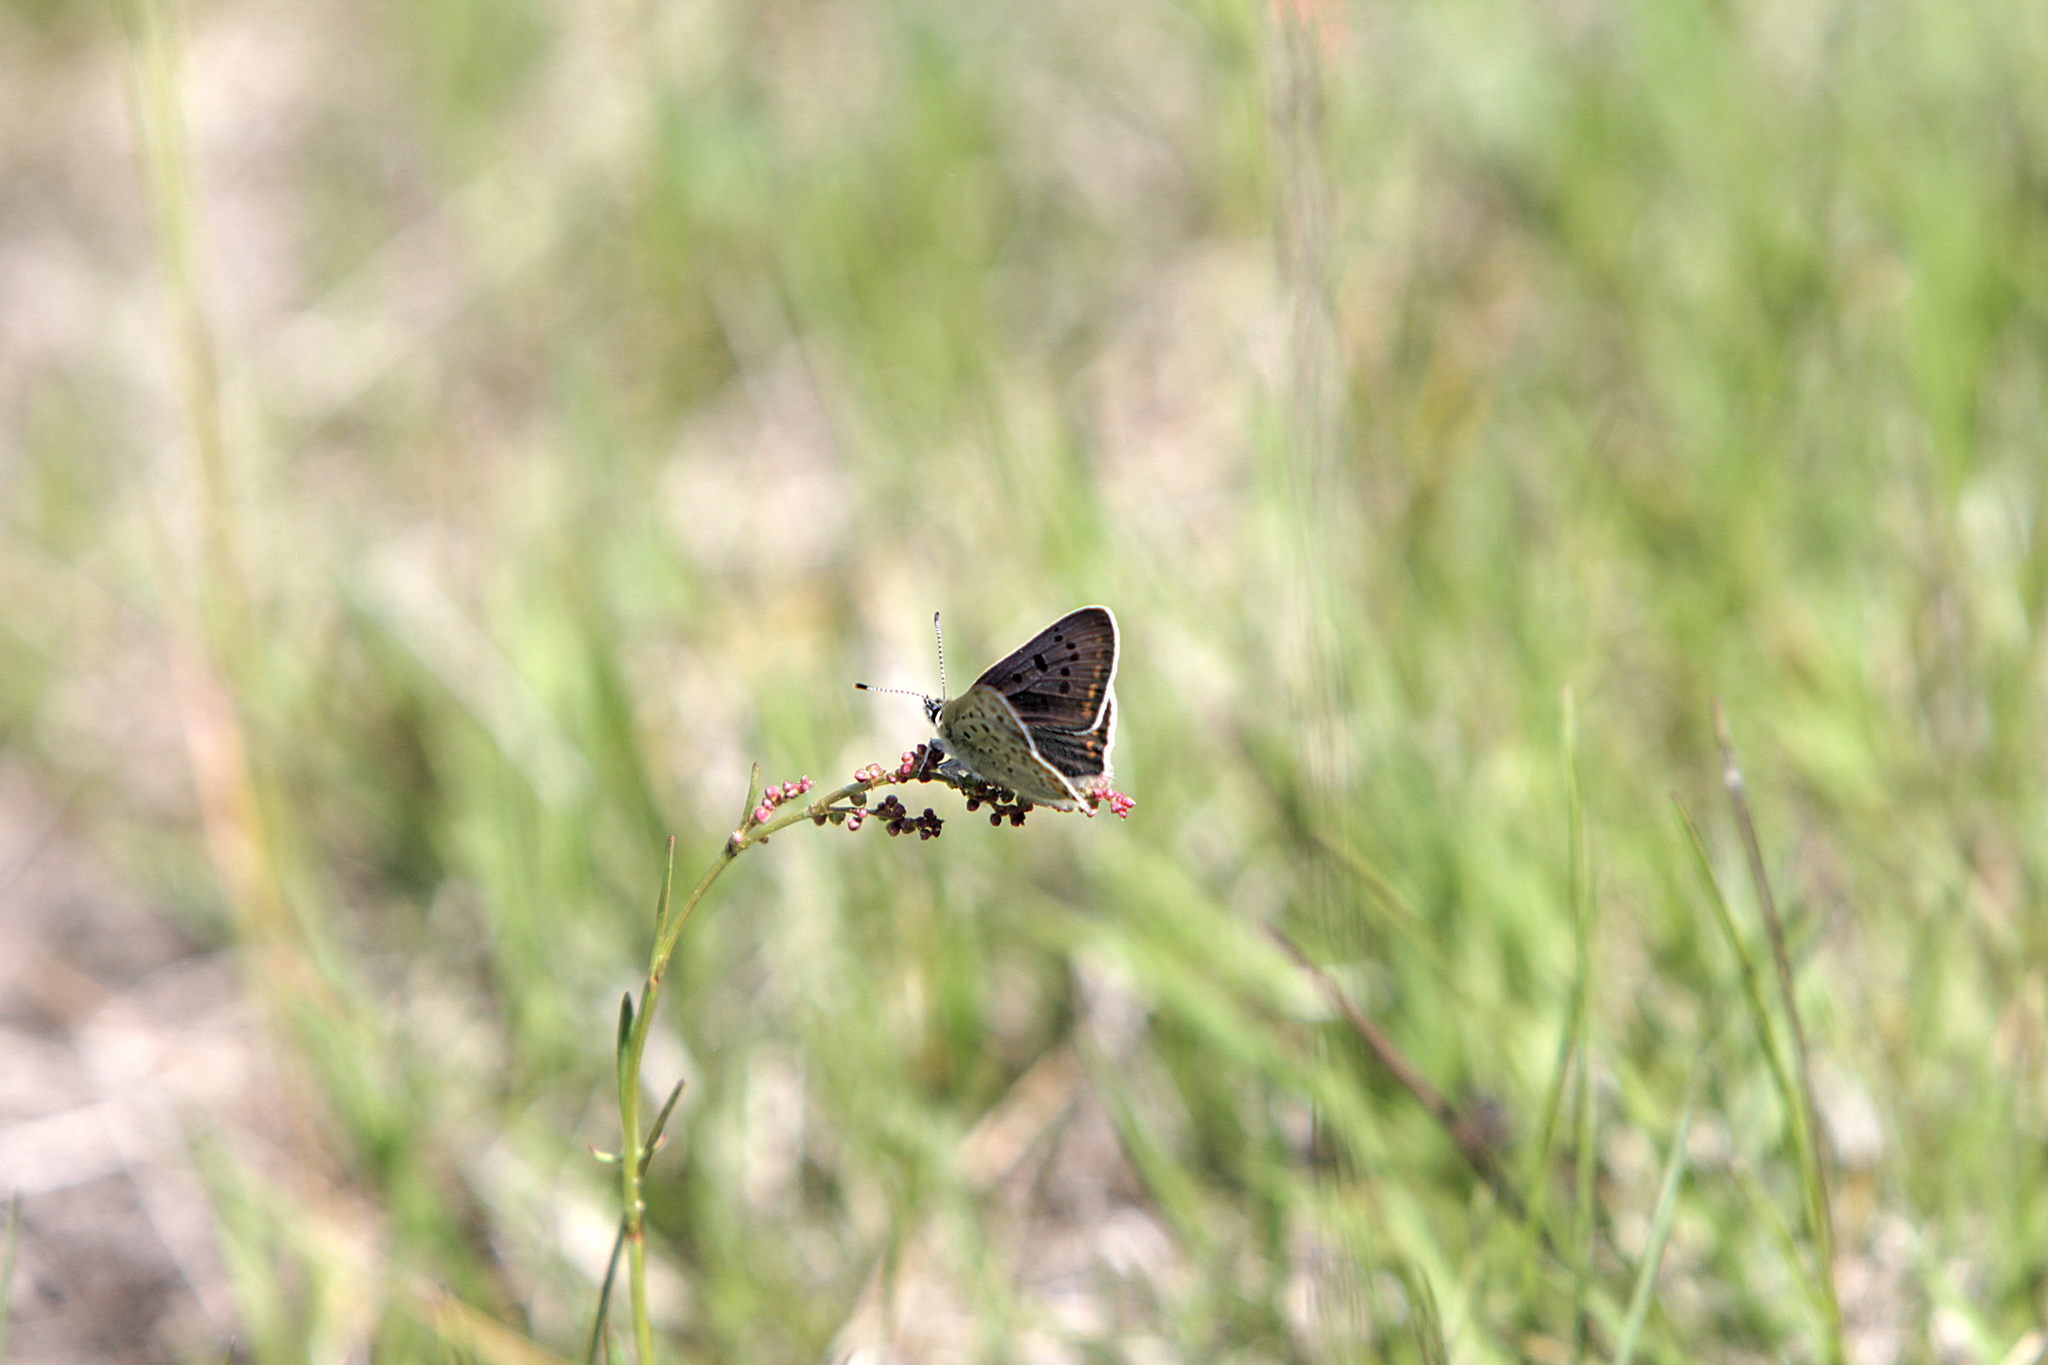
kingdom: Animalia
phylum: Arthropoda
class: Insecta
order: Lepidoptera
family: Lycaenidae
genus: Loweia
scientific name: Loweia tityrus
